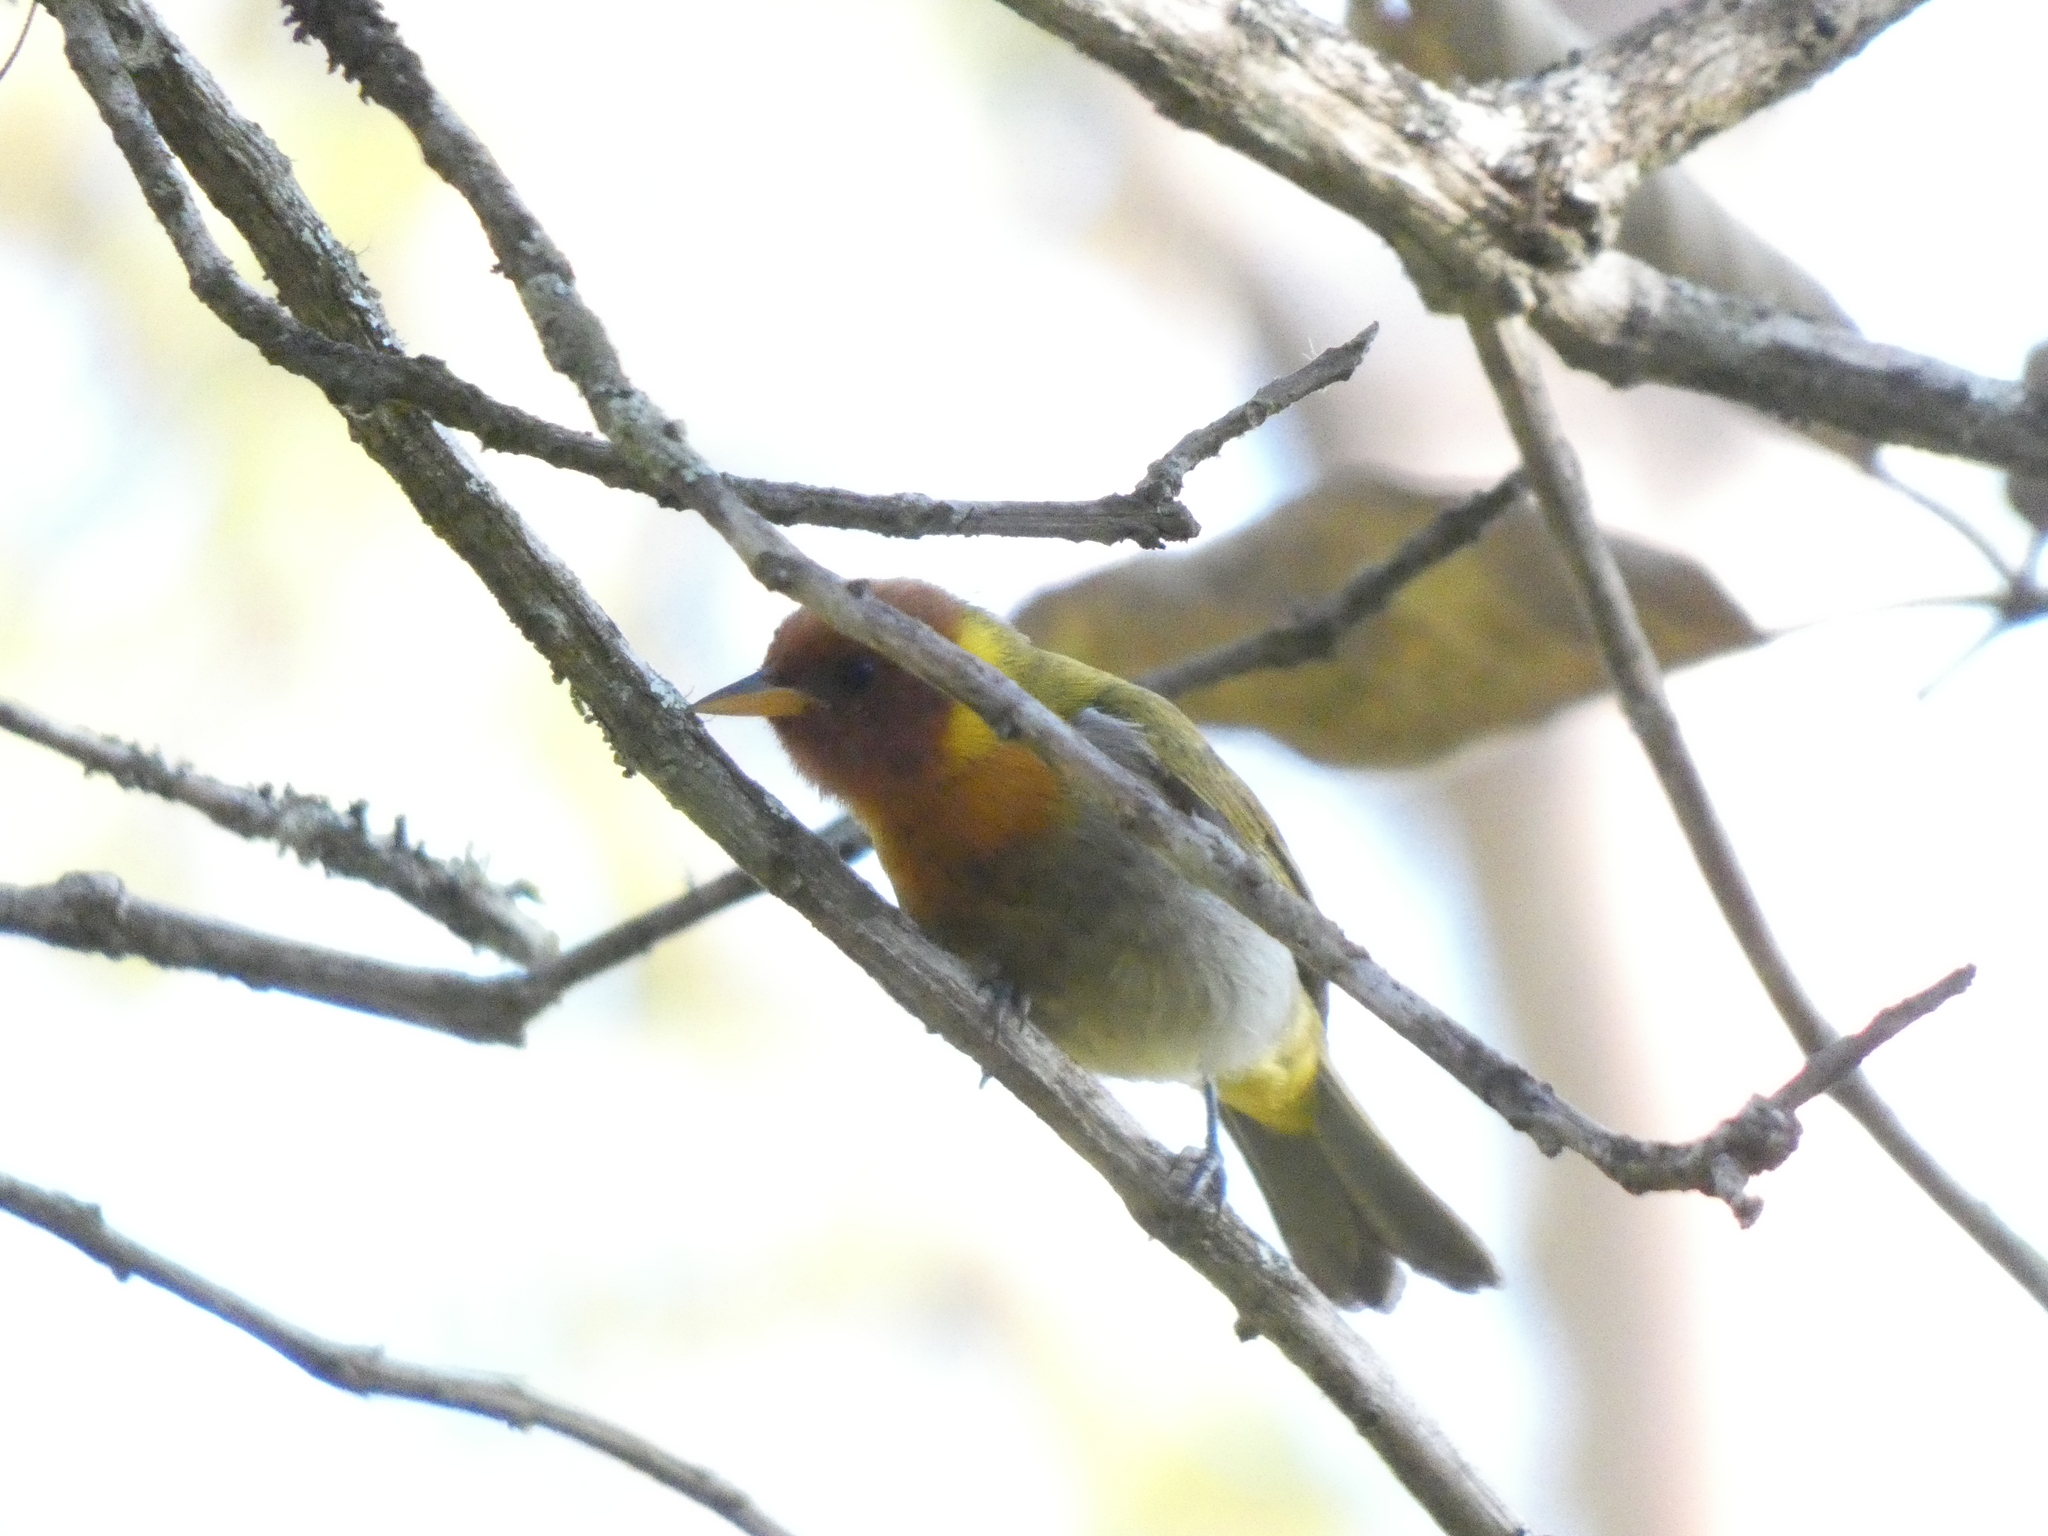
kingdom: Animalia
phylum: Chordata
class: Aves
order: Passeriformes
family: Thraupidae
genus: Hemithraupis
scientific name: Hemithraupis ruficapilla
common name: Rufous-headed tanager
